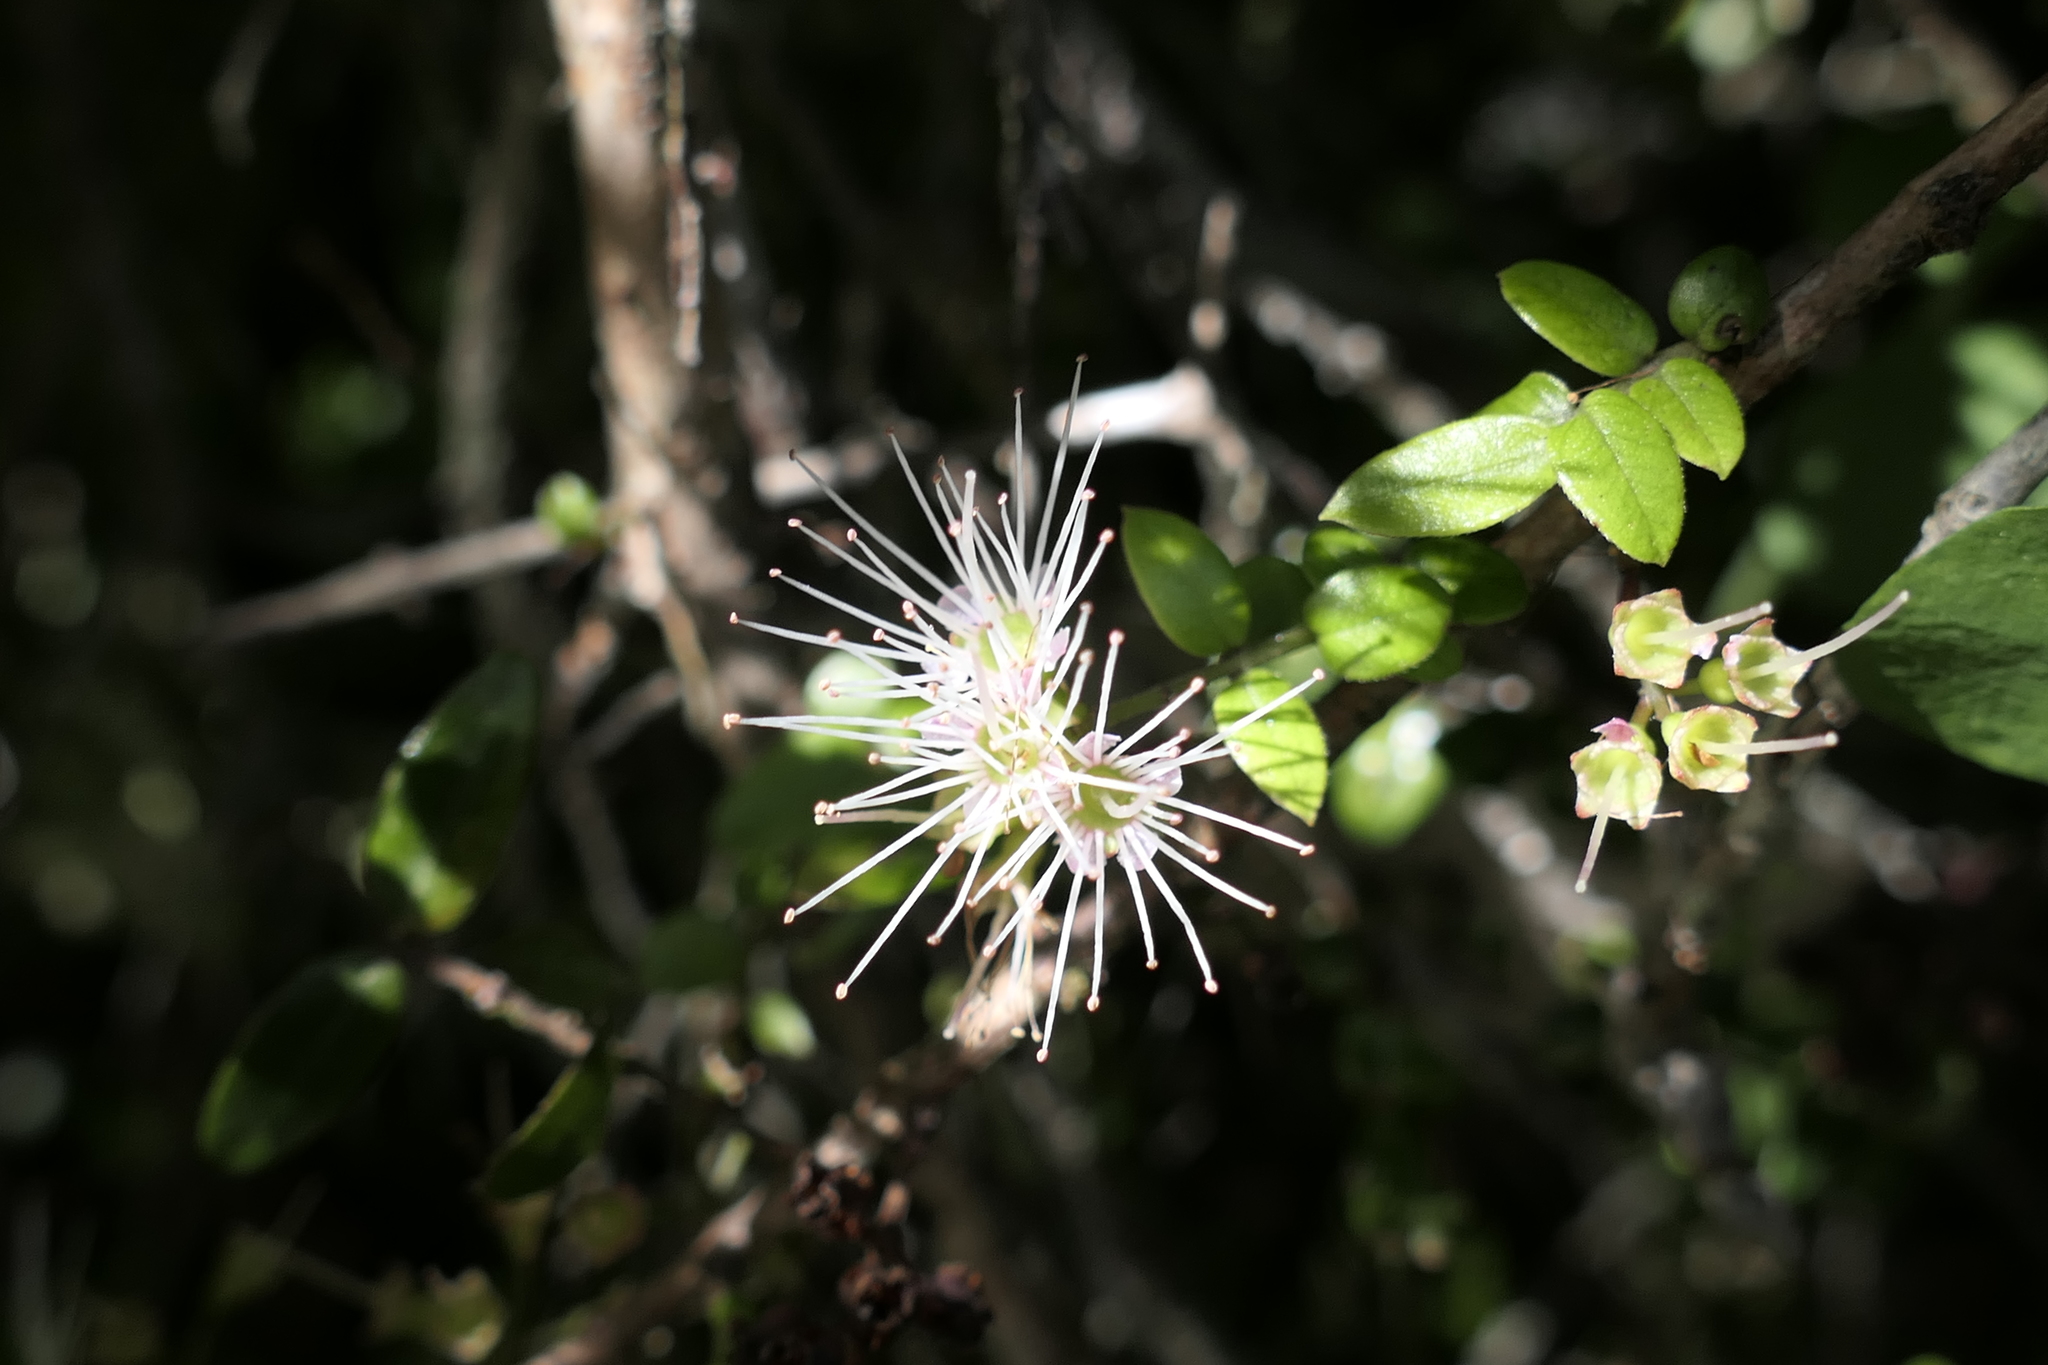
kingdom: Plantae
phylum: Tracheophyta
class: Magnoliopsida
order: Myrtales
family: Myrtaceae
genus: Metrosideros
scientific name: Metrosideros diffusa
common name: Small ratavine
